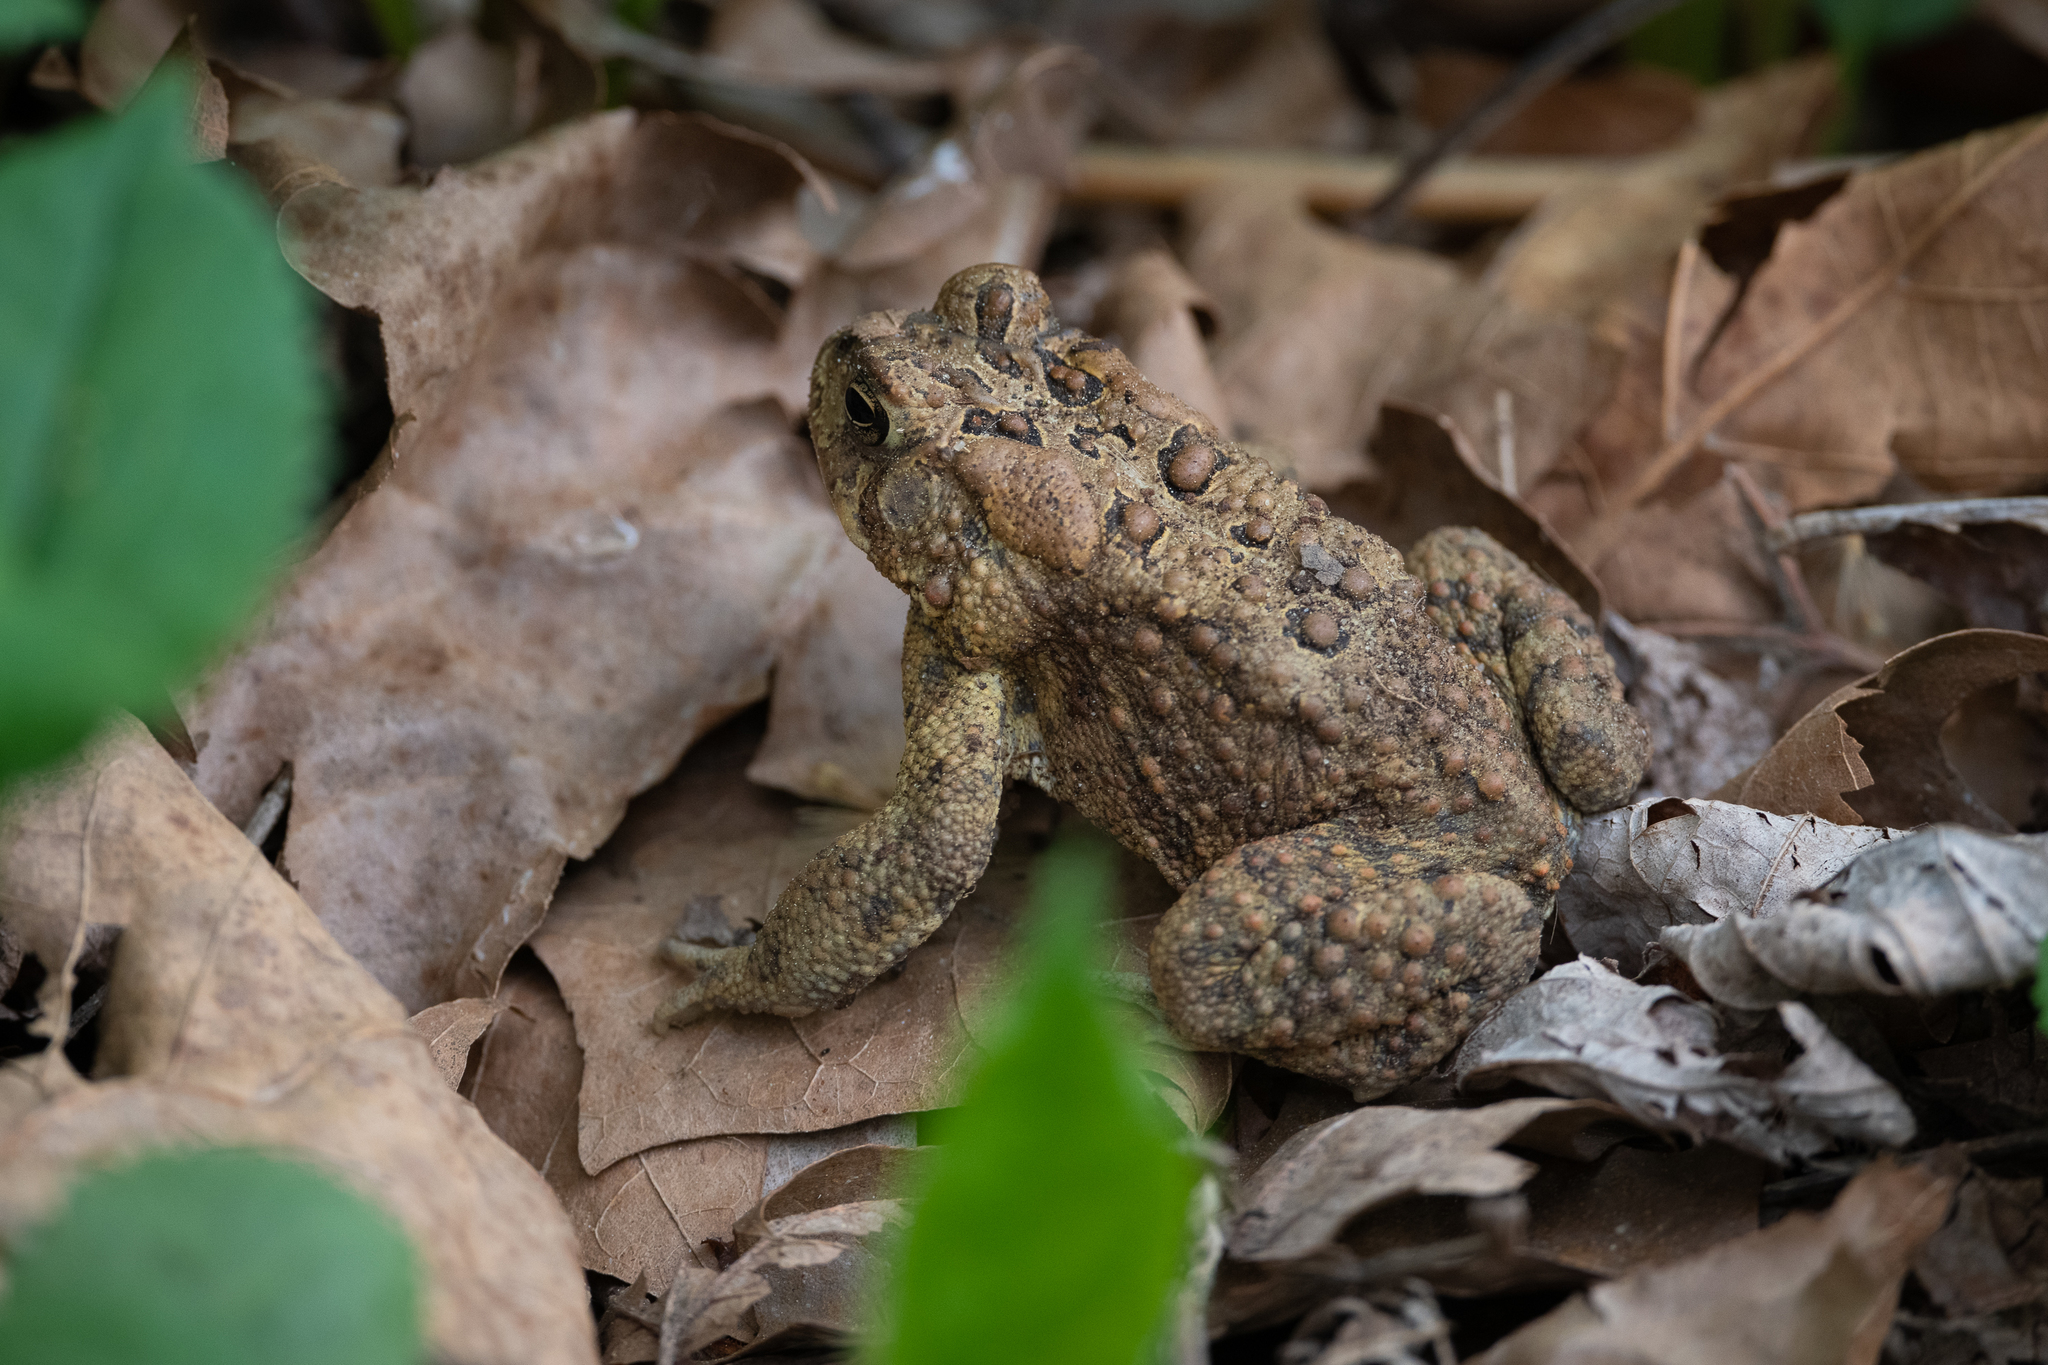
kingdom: Animalia
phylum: Chordata
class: Amphibia
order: Anura
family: Bufonidae
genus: Anaxyrus
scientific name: Anaxyrus americanus
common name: American toad
